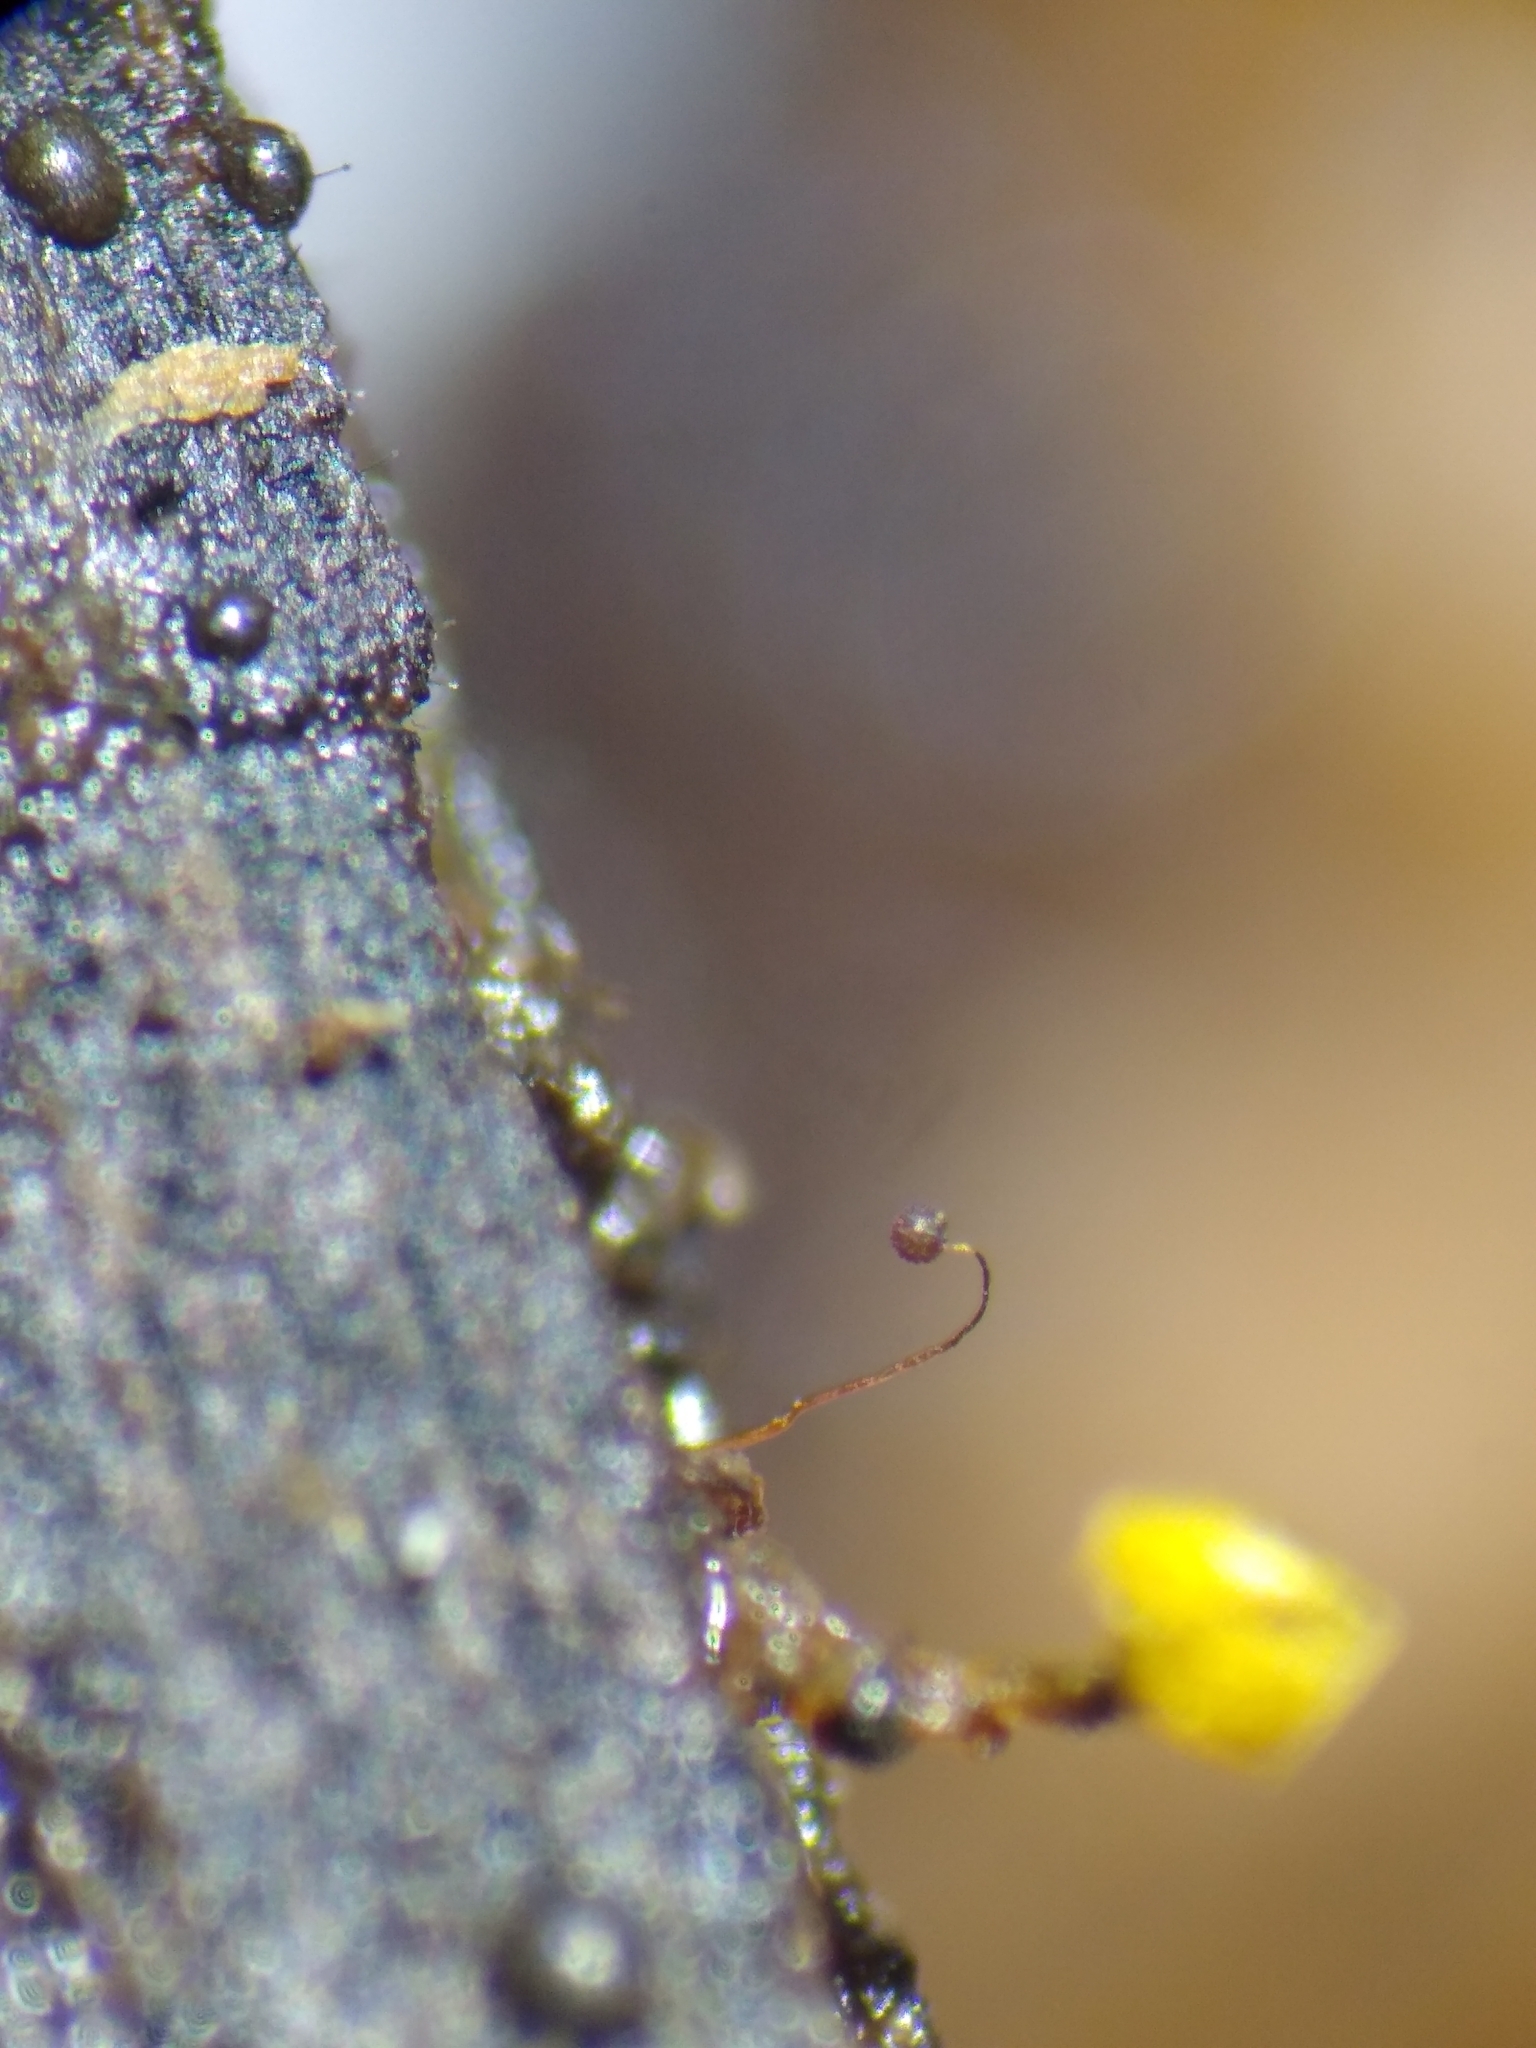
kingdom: Protozoa
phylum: Mycetozoa
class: Myxomycetes
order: Cribrariales
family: Cribrariaceae
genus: Cribraria
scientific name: Cribraria microcarpa
